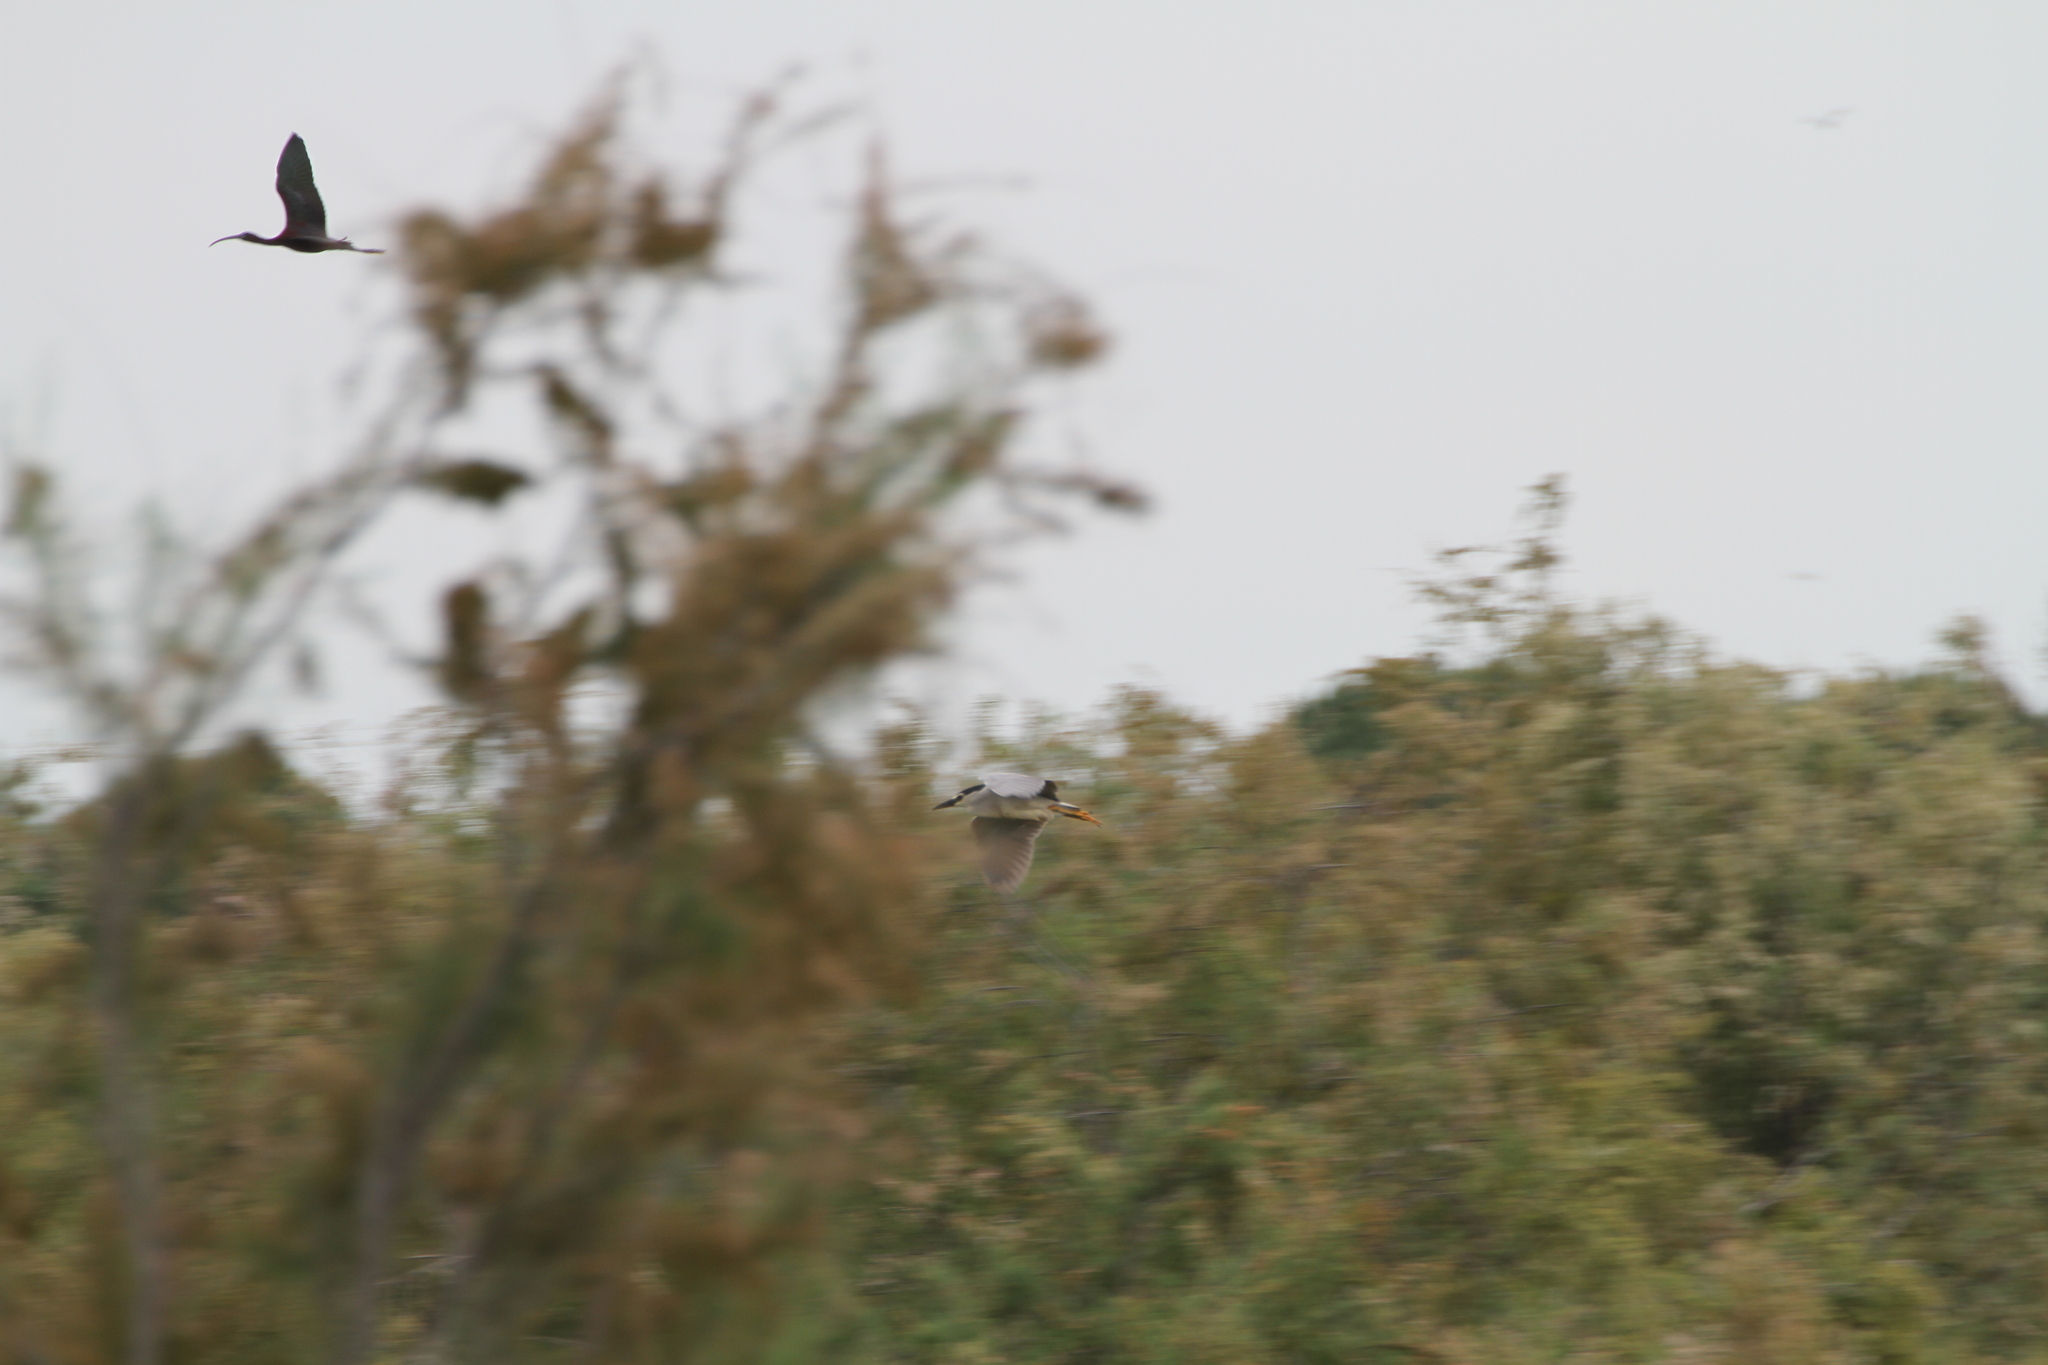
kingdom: Animalia
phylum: Chordata
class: Aves
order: Pelecaniformes
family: Ardeidae
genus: Nycticorax
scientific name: Nycticorax nycticorax
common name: Black-crowned night heron
